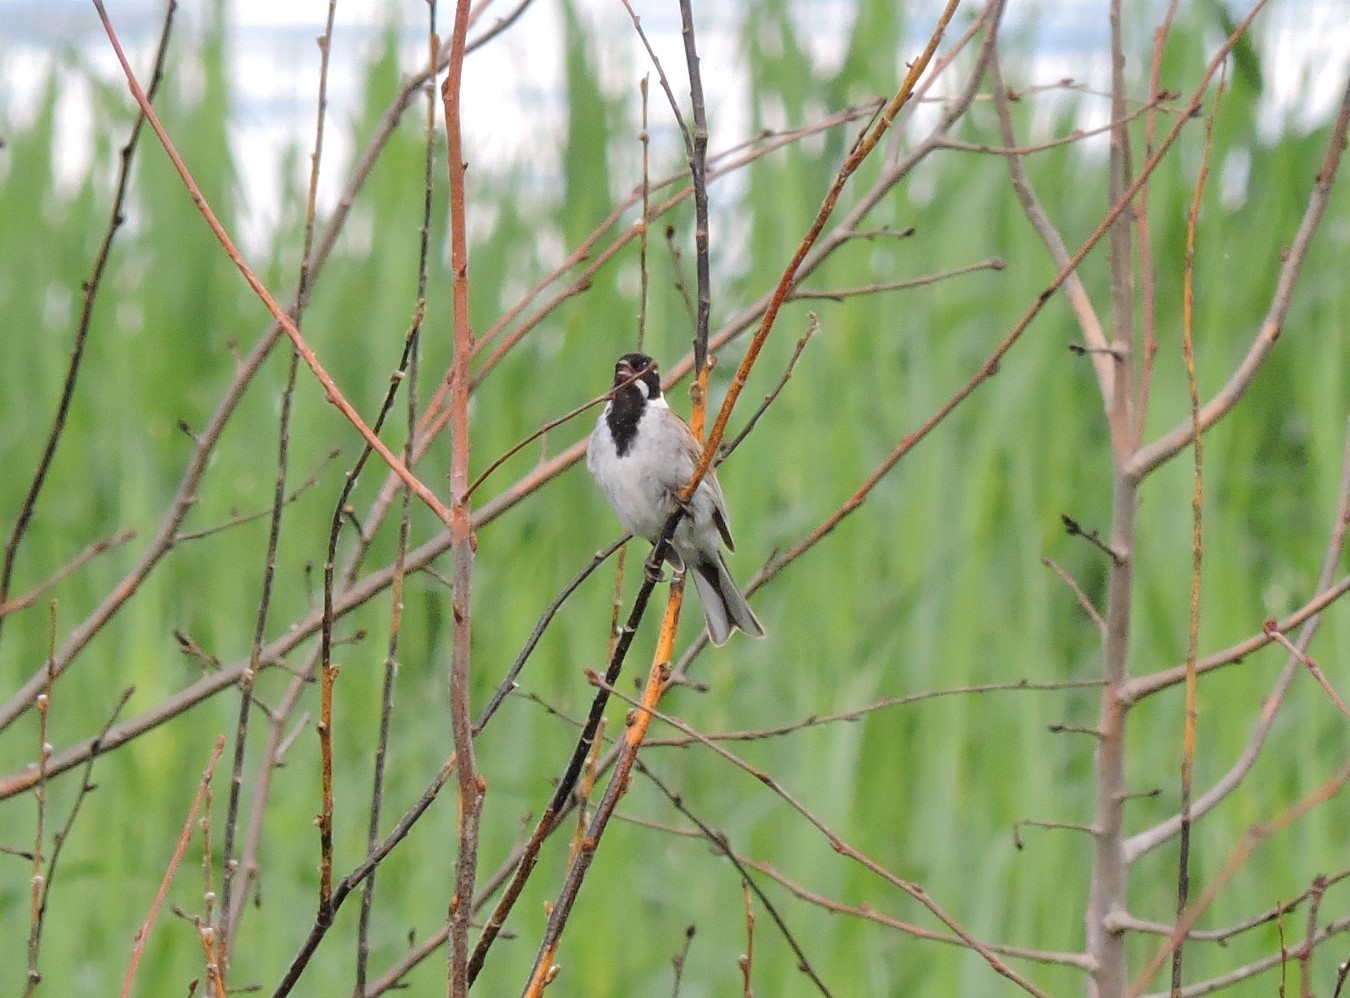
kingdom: Animalia
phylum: Chordata
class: Aves
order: Passeriformes
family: Emberizidae
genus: Emberiza
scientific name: Emberiza schoeniclus
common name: Reed bunting
